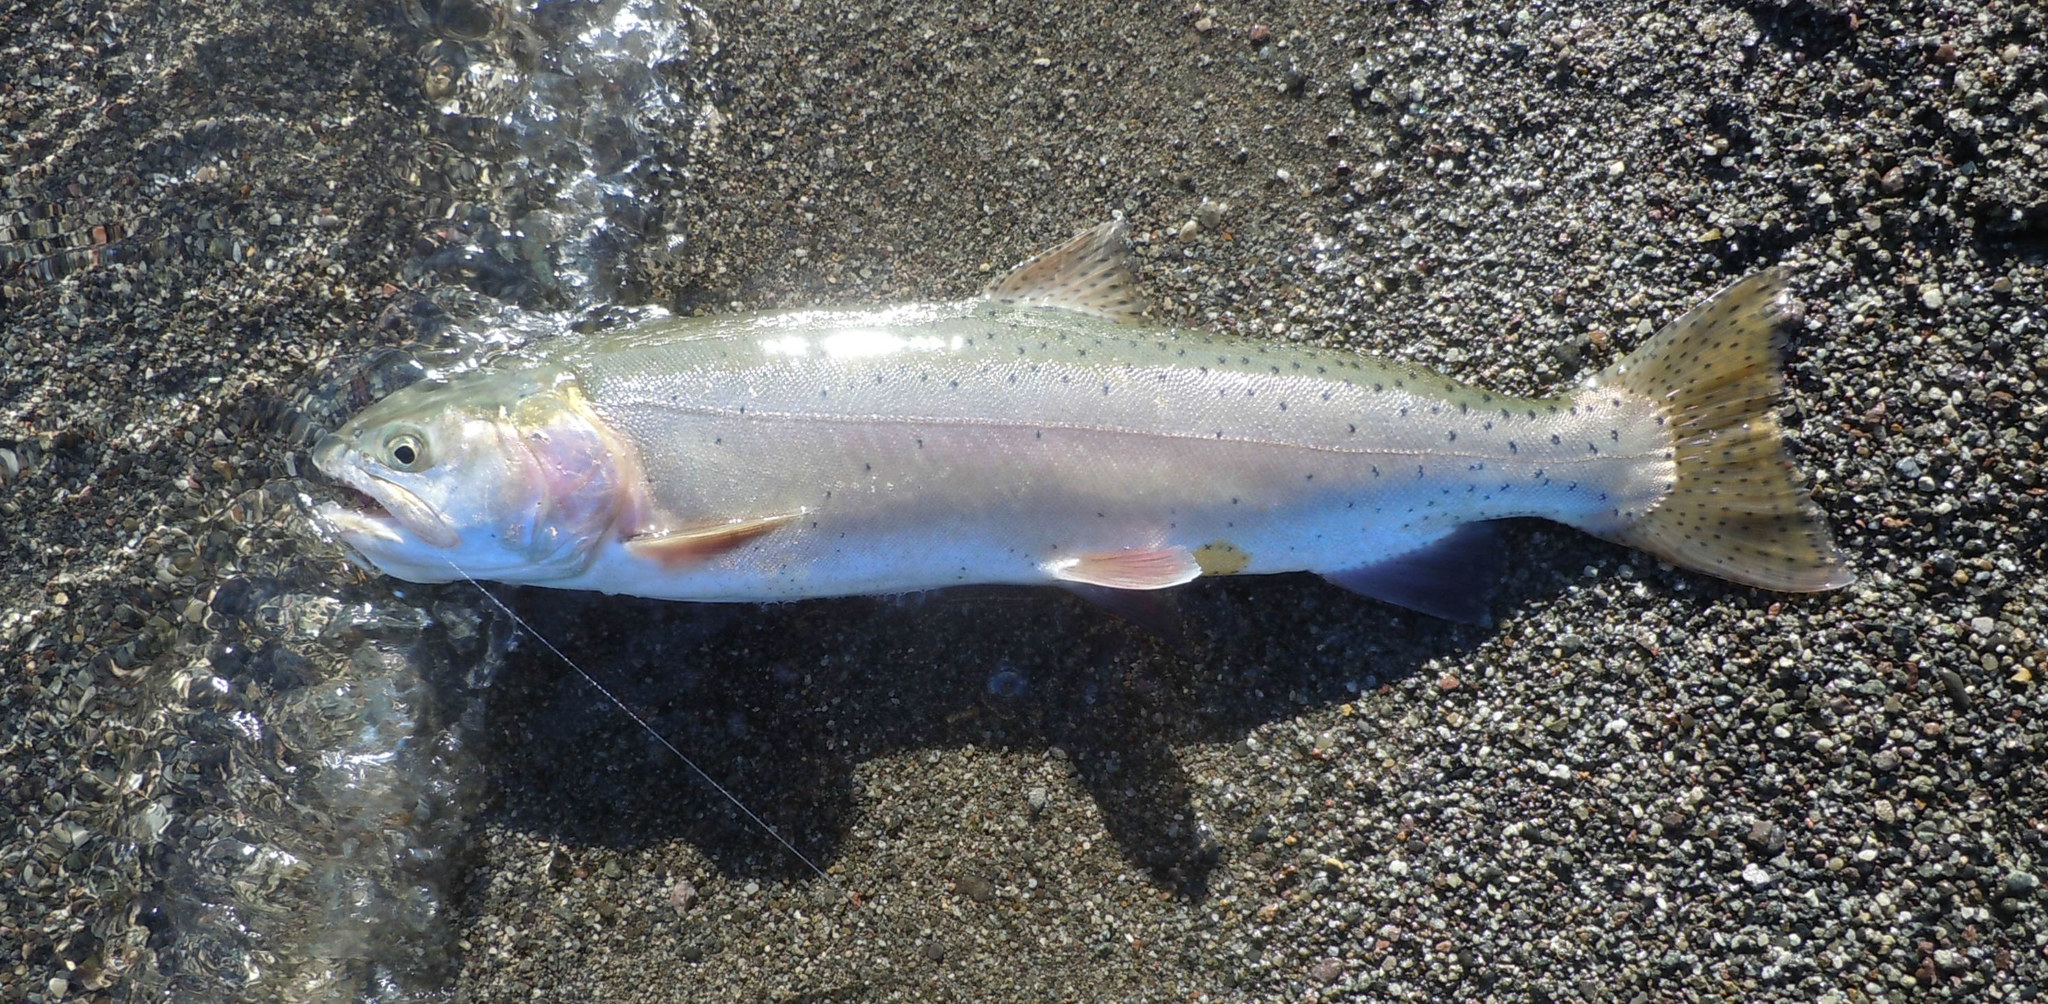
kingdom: Animalia
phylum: Chordata
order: Salmoniformes
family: Salmonidae
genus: Oncorhynchus
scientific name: Oncorhynchus henshawi
